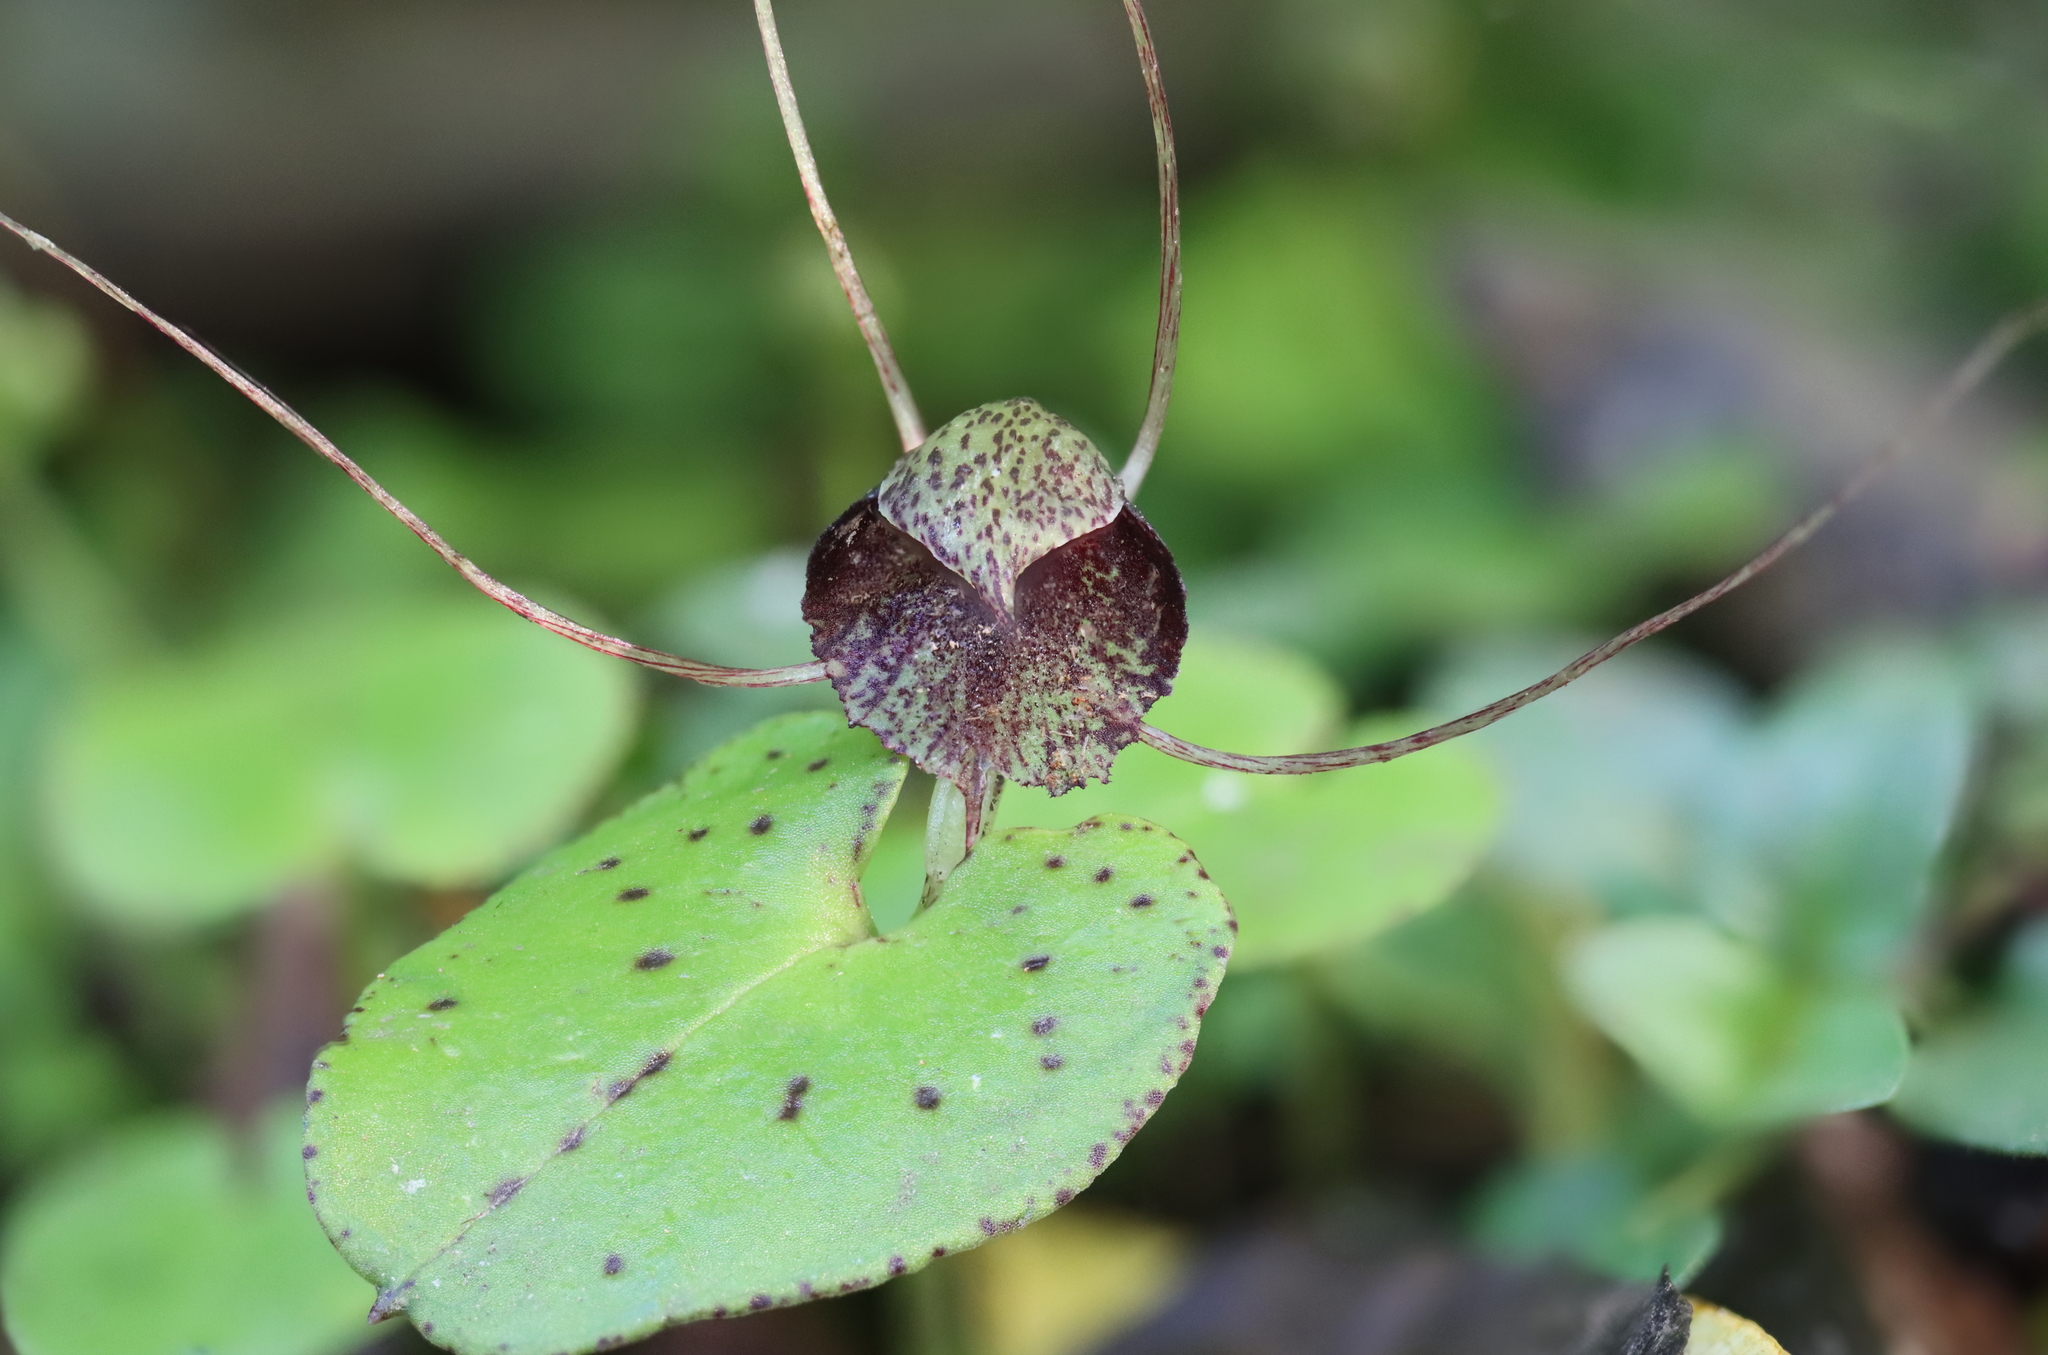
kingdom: Plantae
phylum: Tracheophyta
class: Liliopsida
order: Asparagales
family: Orchidaceae
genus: Corybas
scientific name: Corybas hatchii
